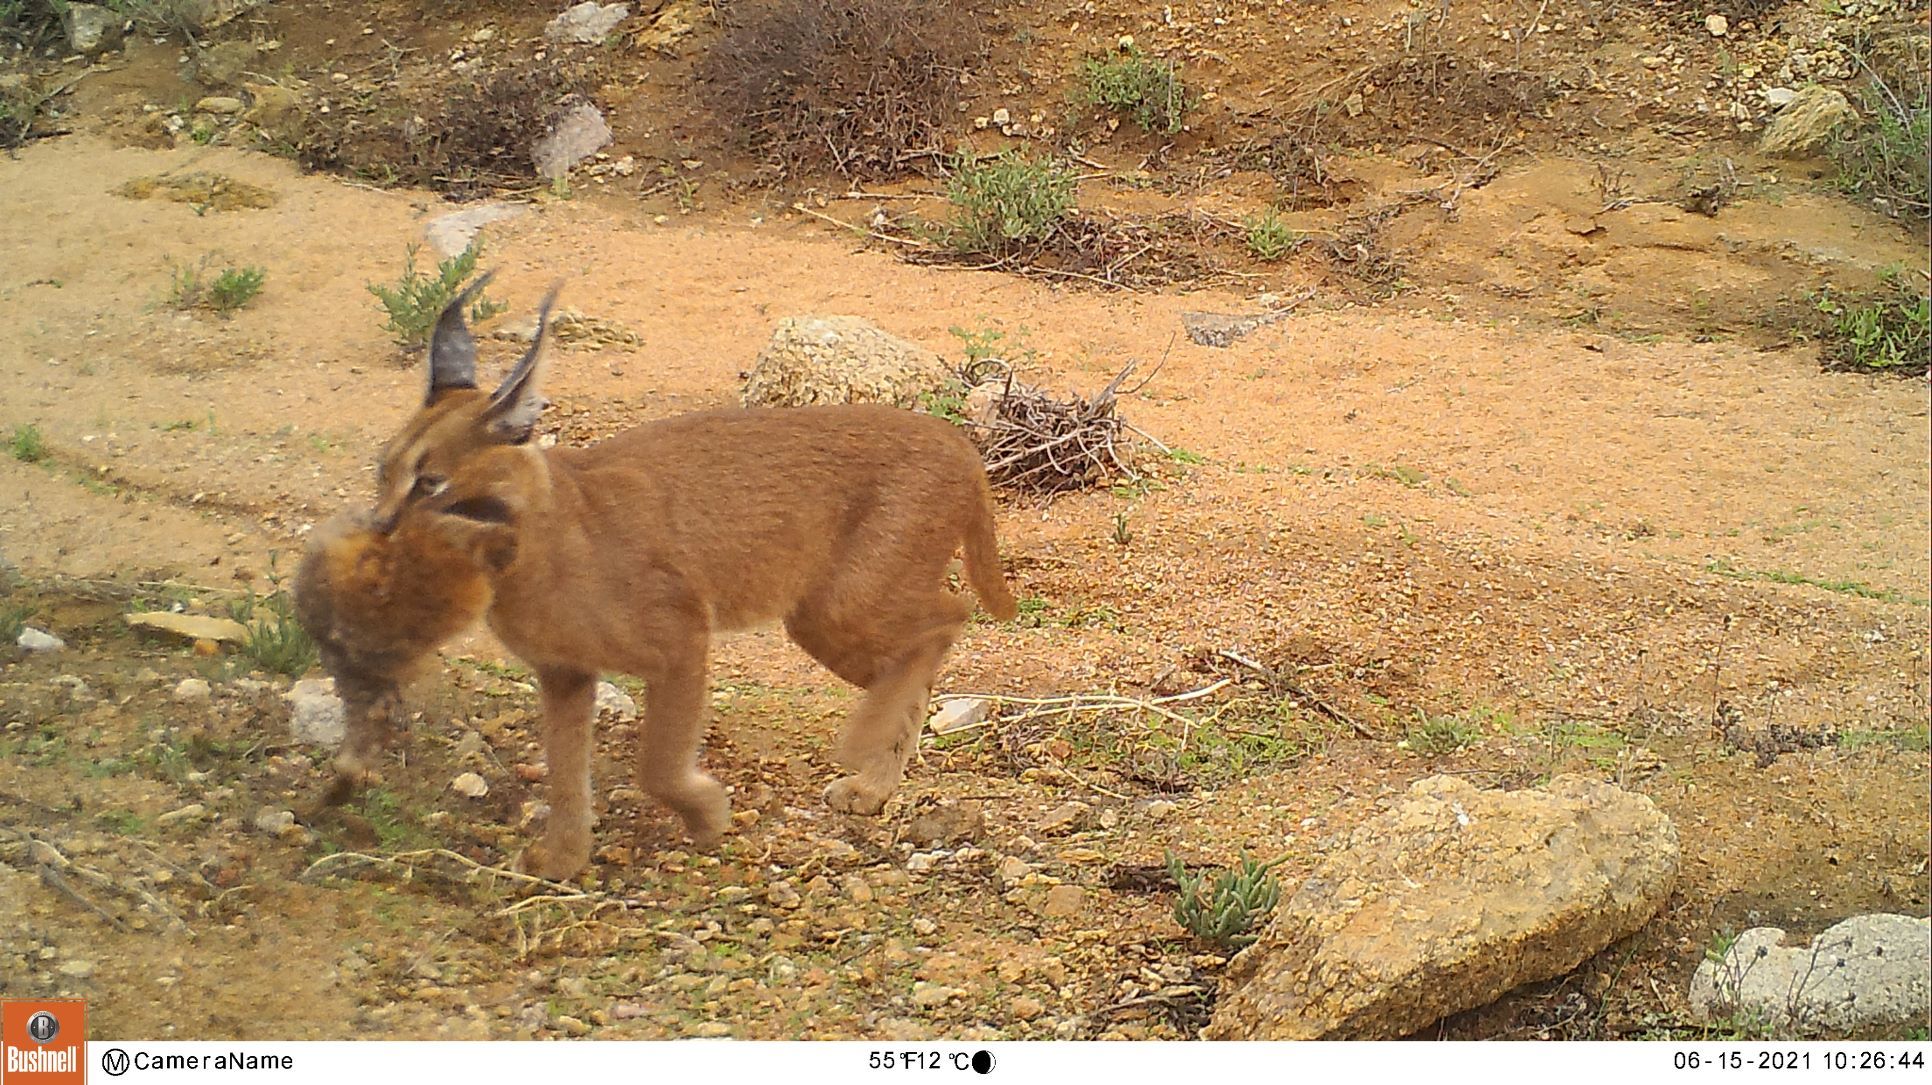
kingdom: Animalia
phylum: Chordata
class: Mammalia
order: Carnivora
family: Felidae
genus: Caracal
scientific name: Caracal caracal
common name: Caracal
